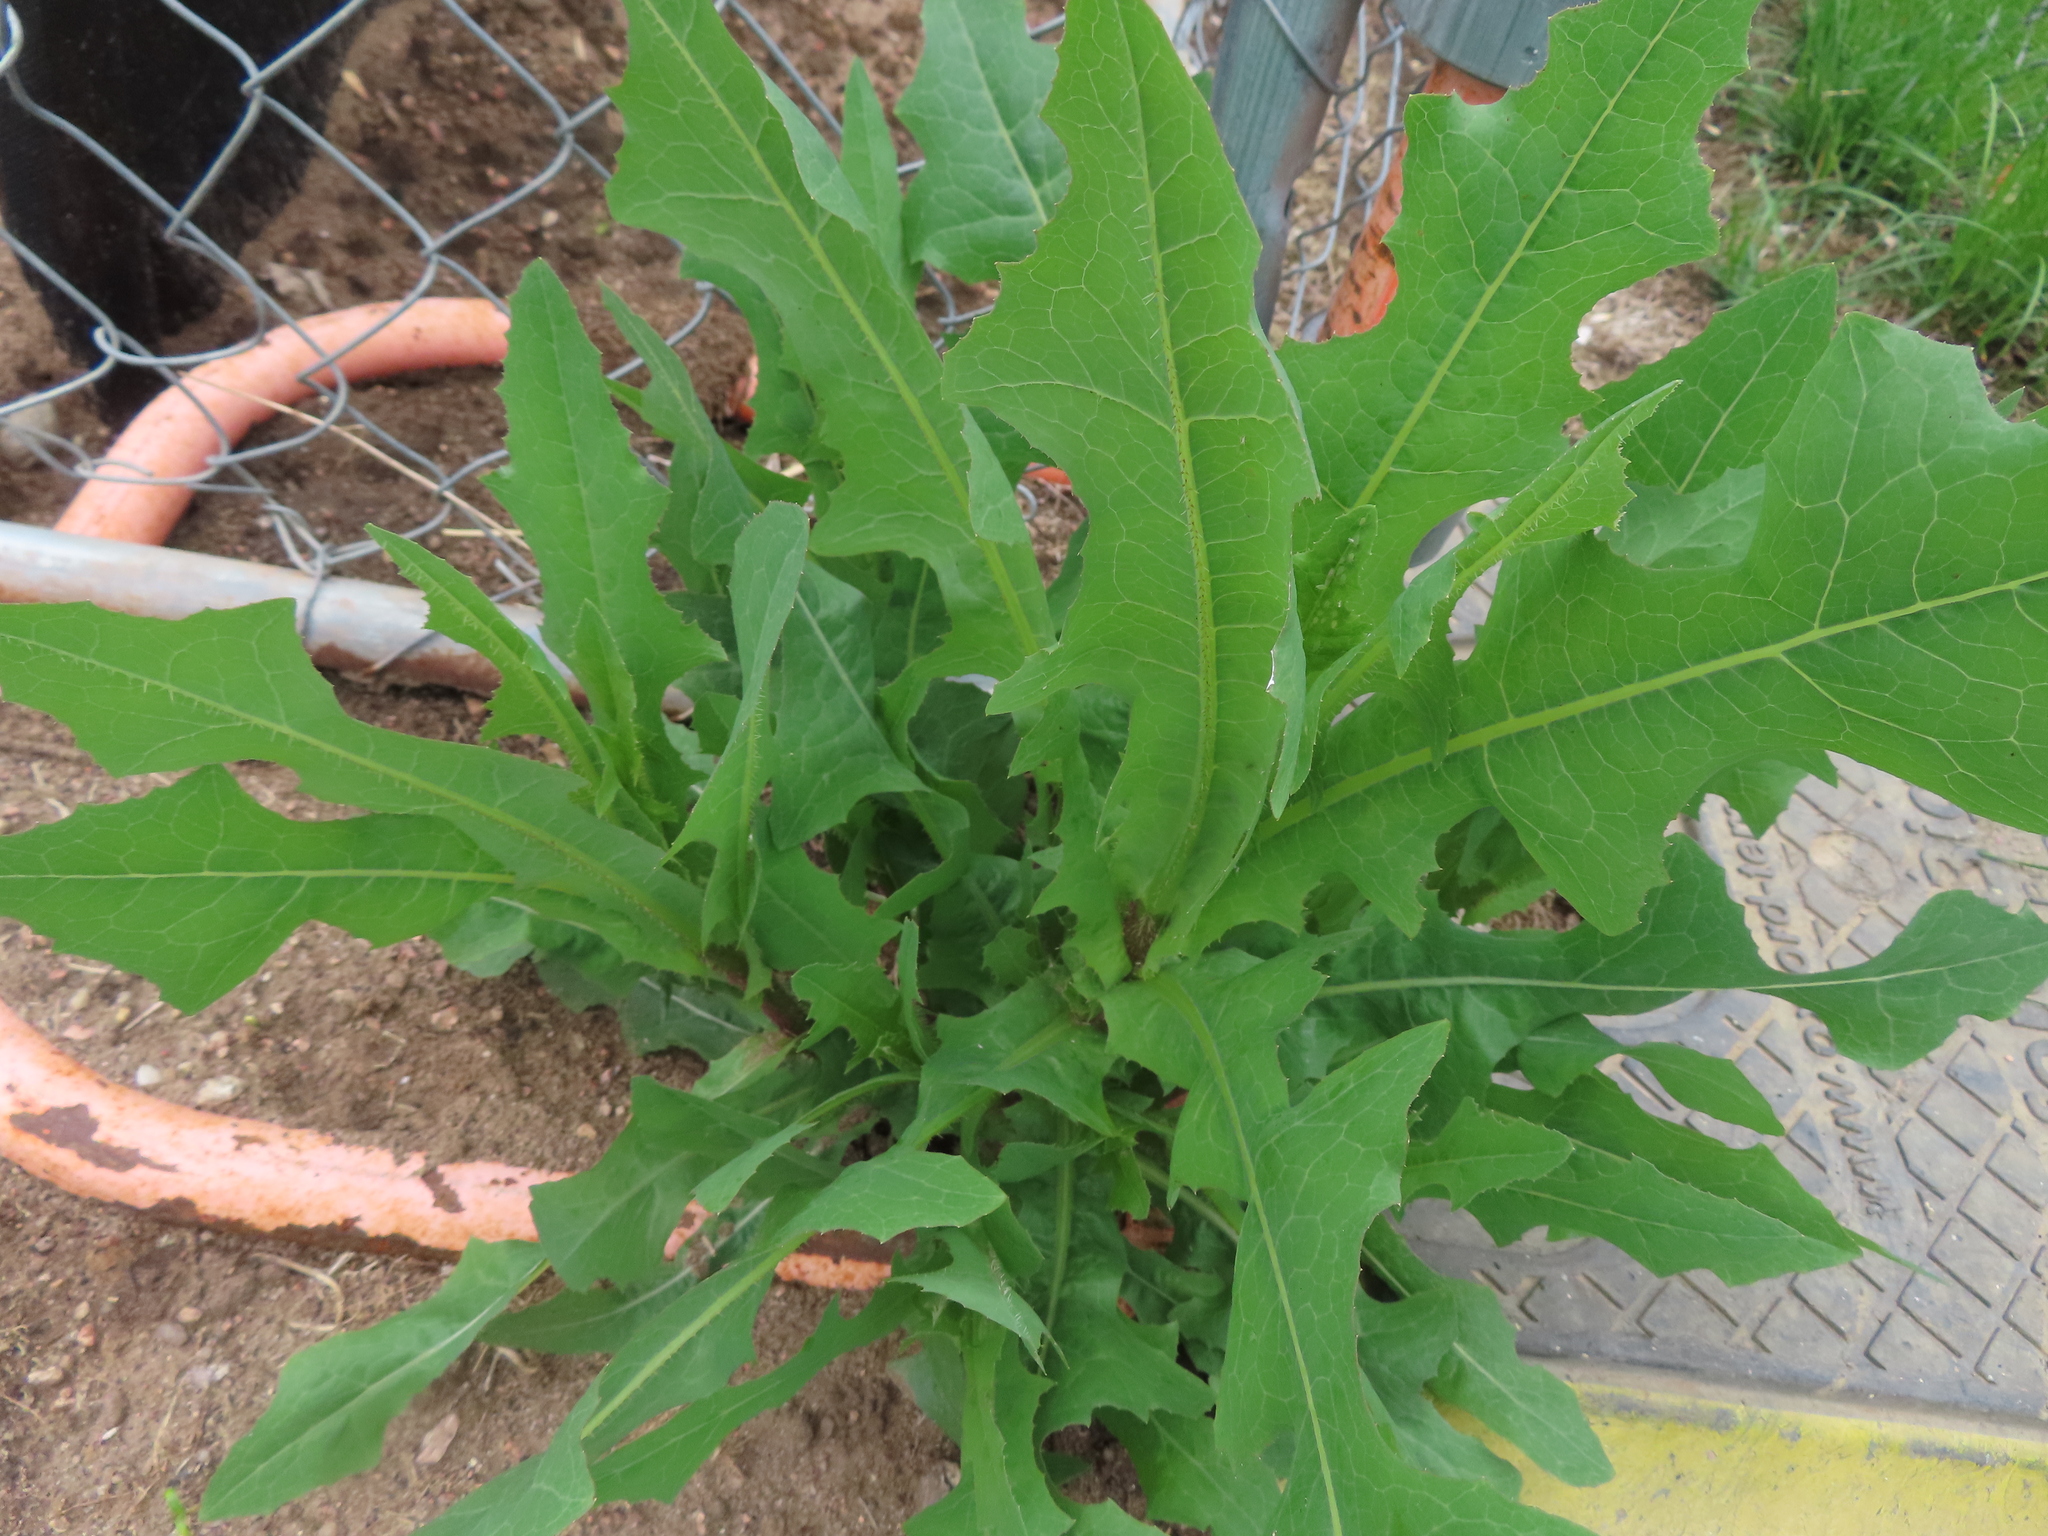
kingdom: Plantae
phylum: Tracheophyta
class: Magnoliopsida
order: Asterales
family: Asteraceae
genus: Lactuca
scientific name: Lactuca serriola
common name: Prickly lettuce
